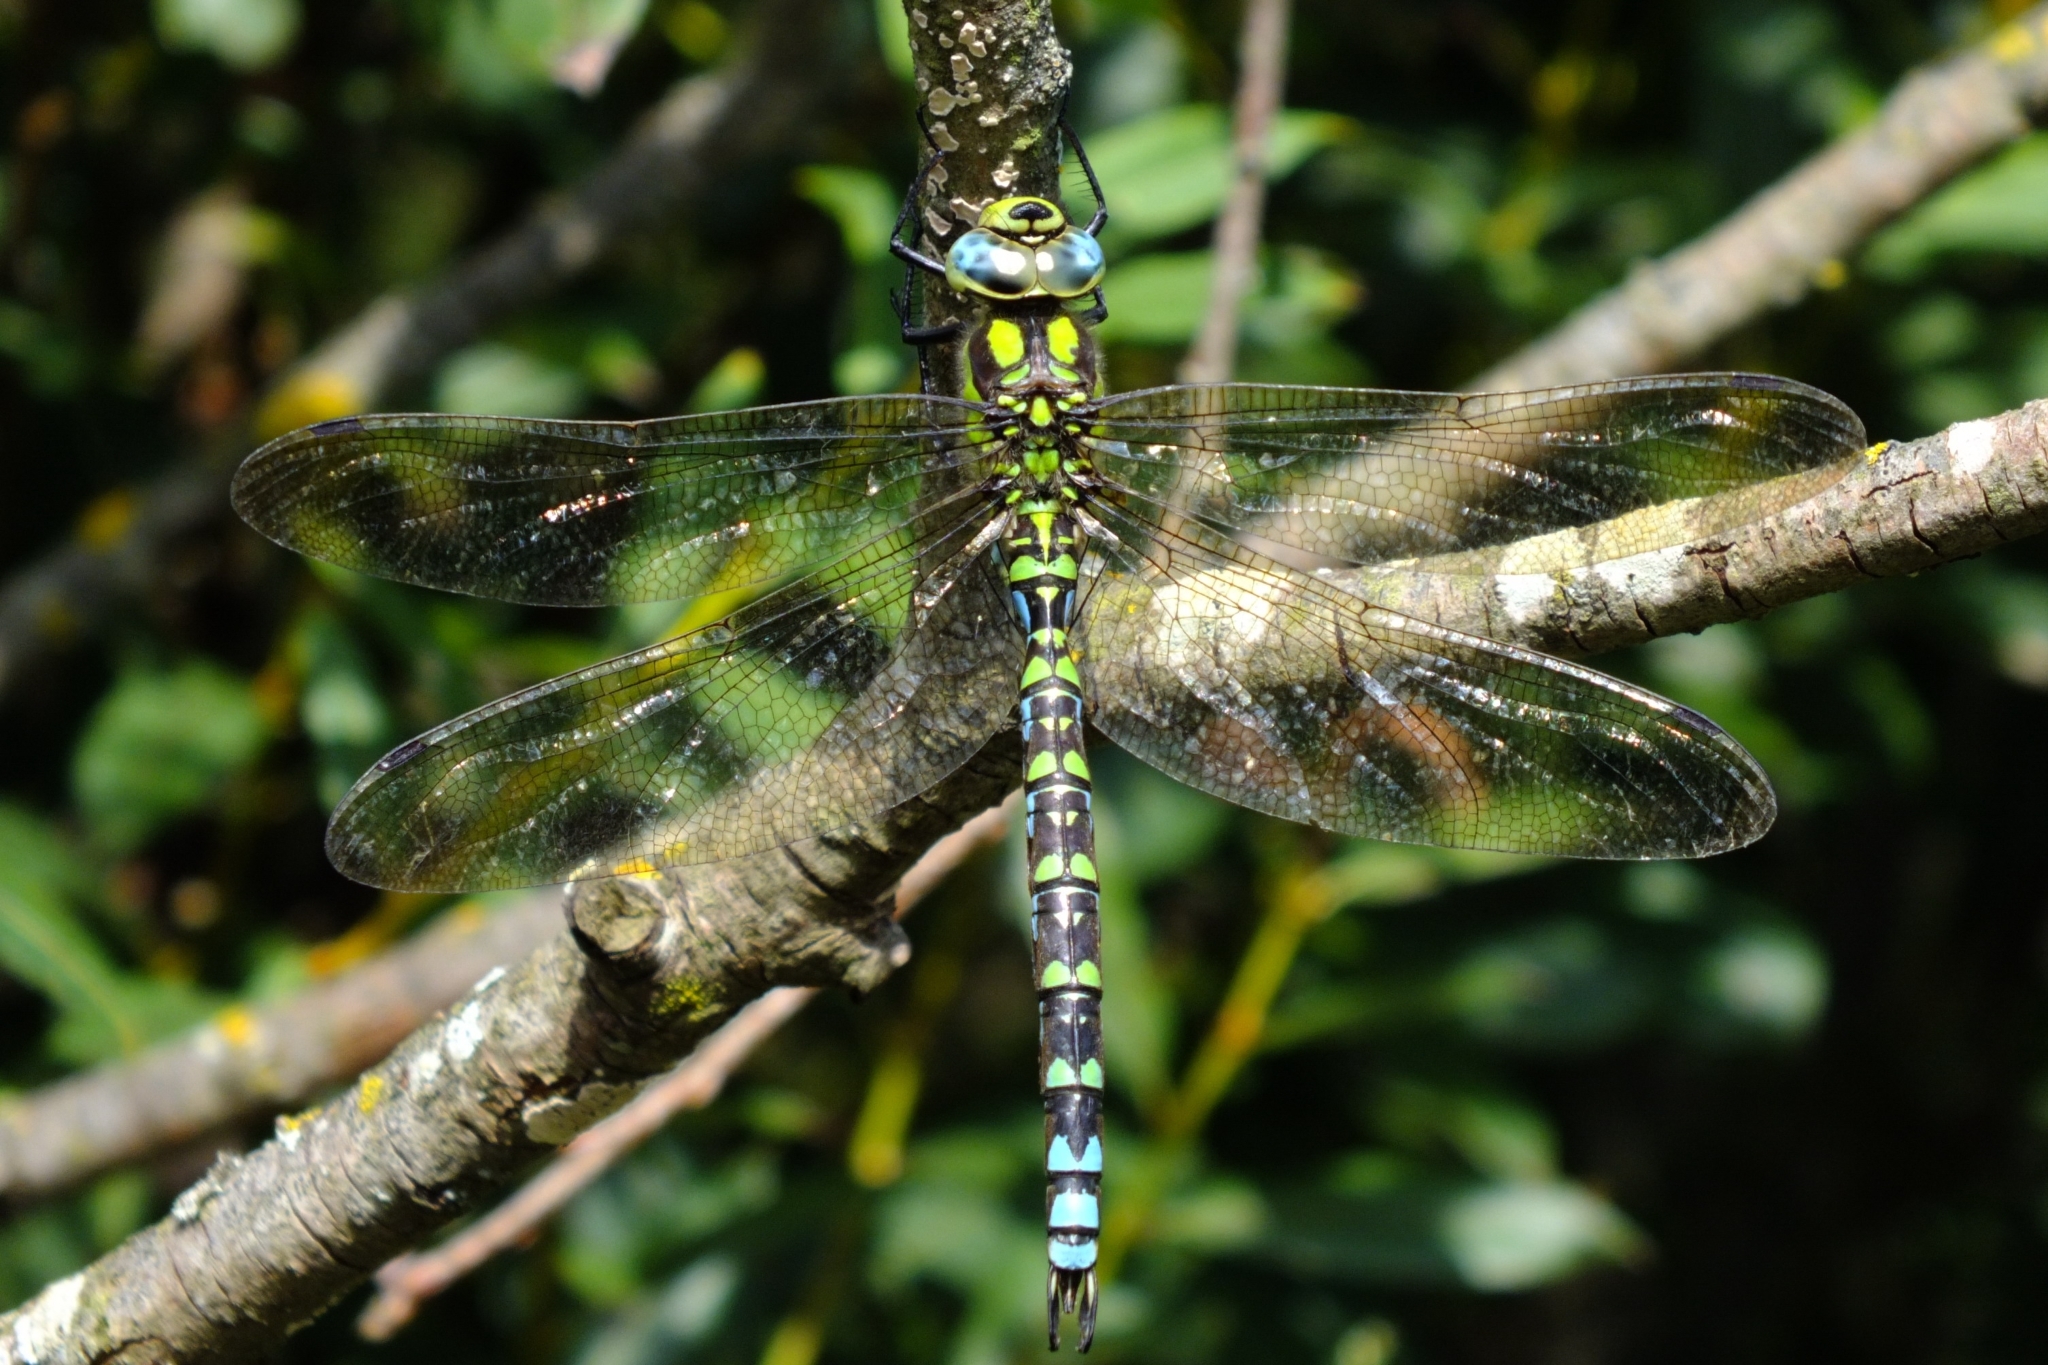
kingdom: Animalia
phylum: Arthropoda
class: Insecta
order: Odonata
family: Aeshnidae
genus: Aeshna
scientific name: Aeshna cyanea
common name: Southern hawker
